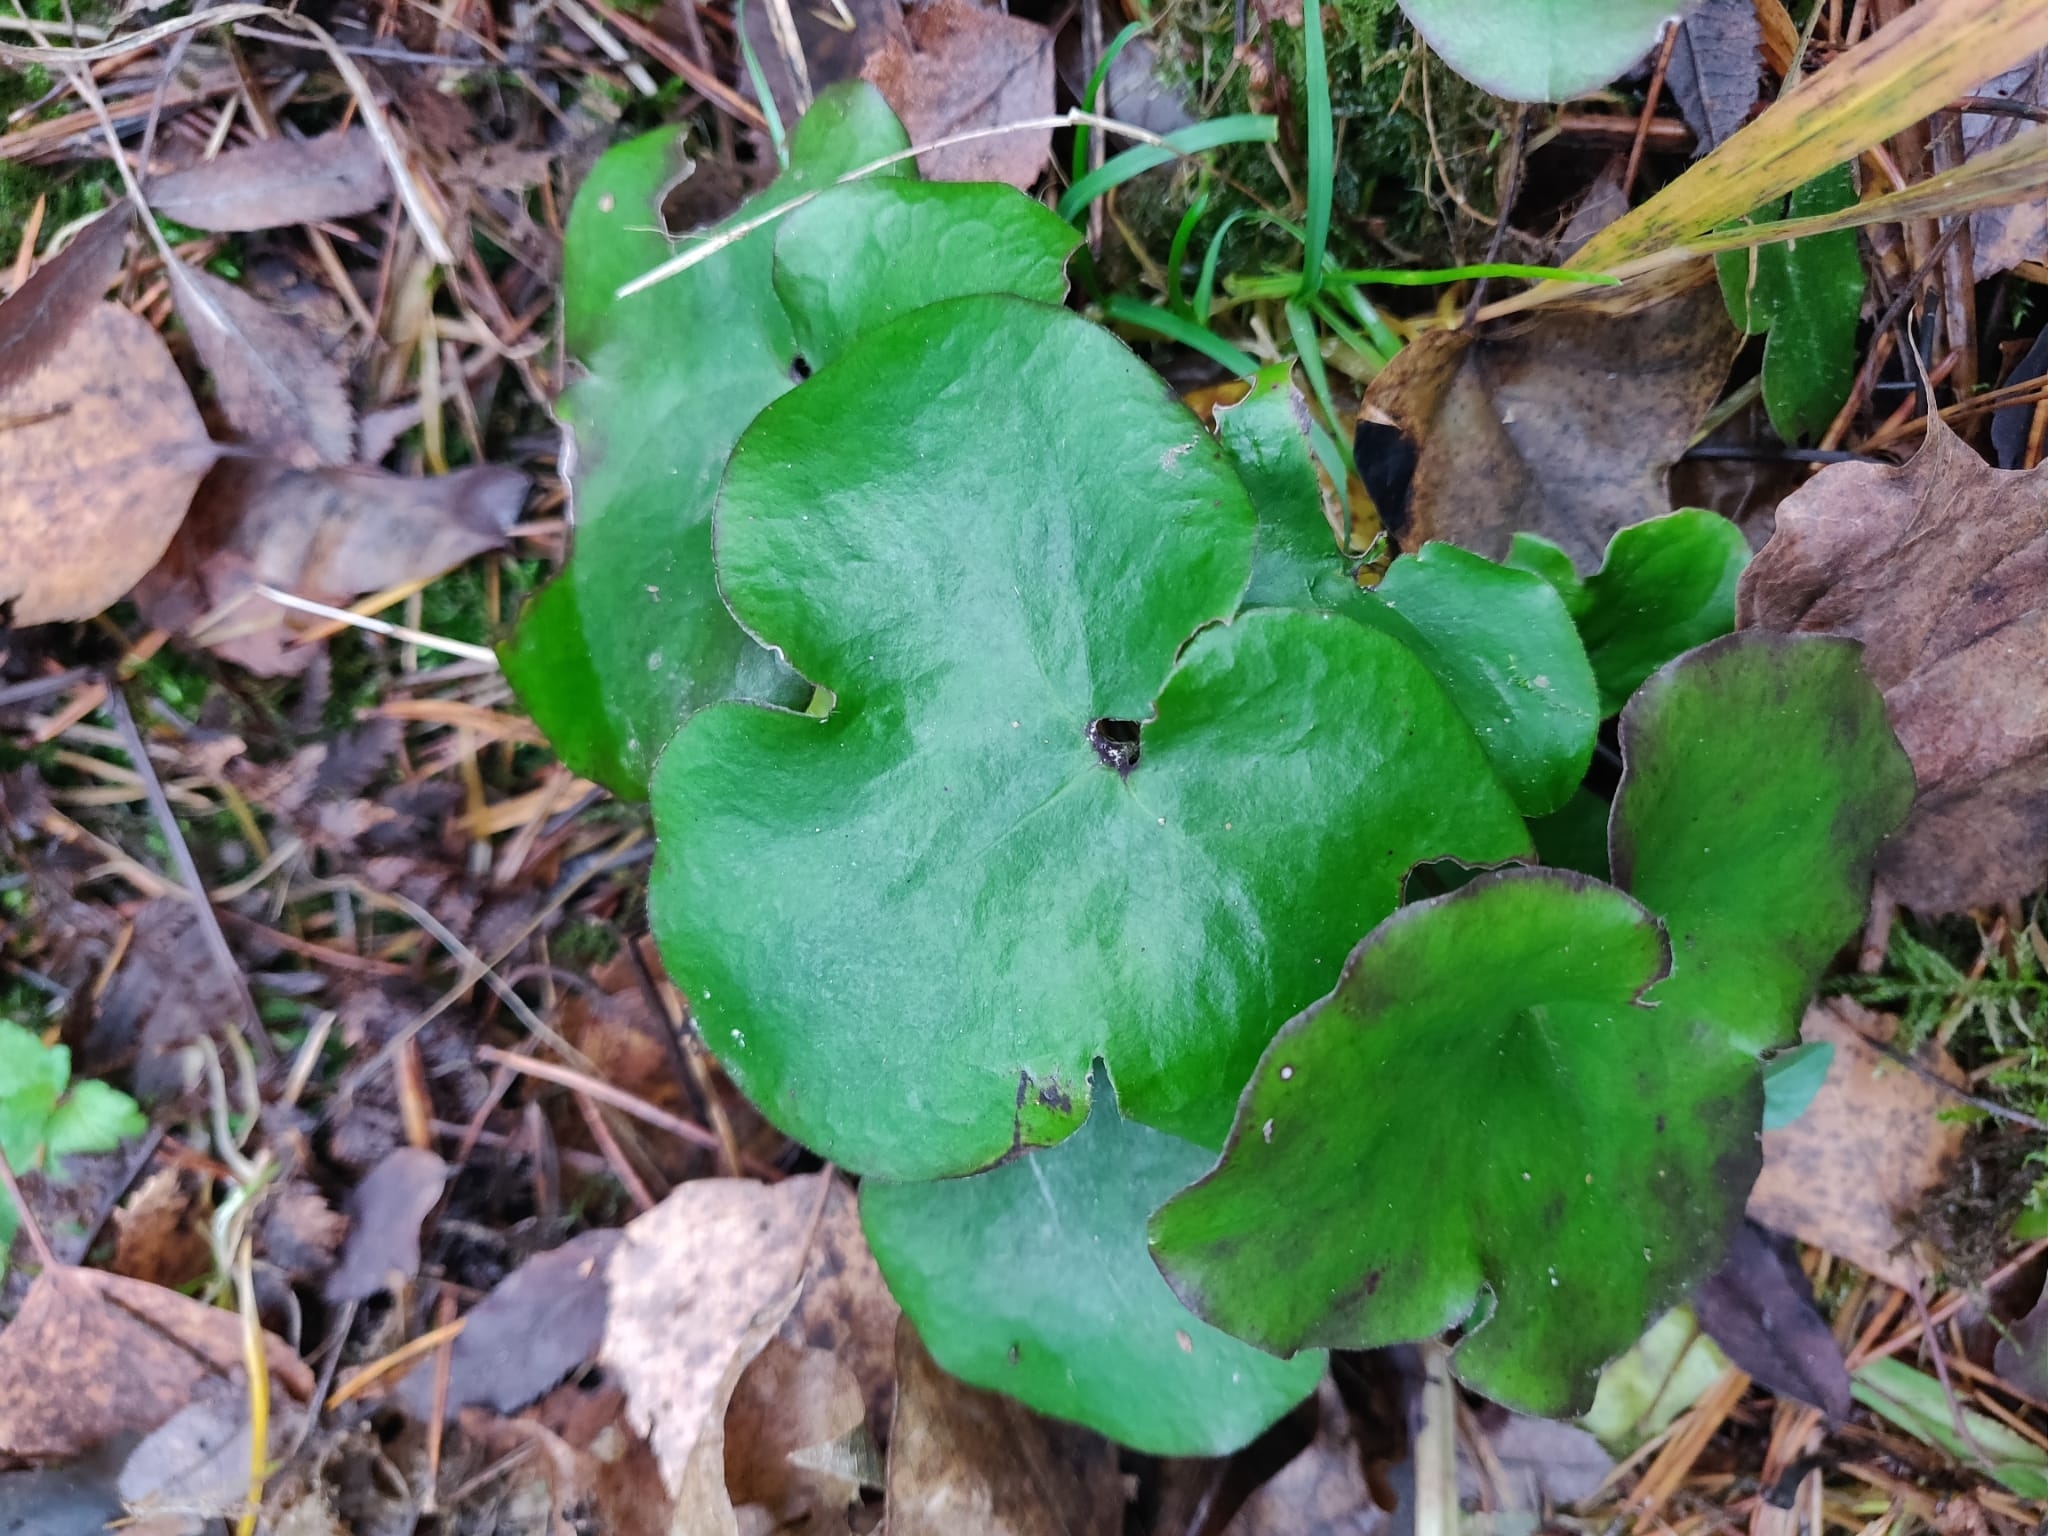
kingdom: Plantae
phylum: Tracheophyta
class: Magnoliopsida
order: Ranunculales
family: Ranunculaceae
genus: Hepatica
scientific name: Hepatica nobilis
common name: Liverleaf
